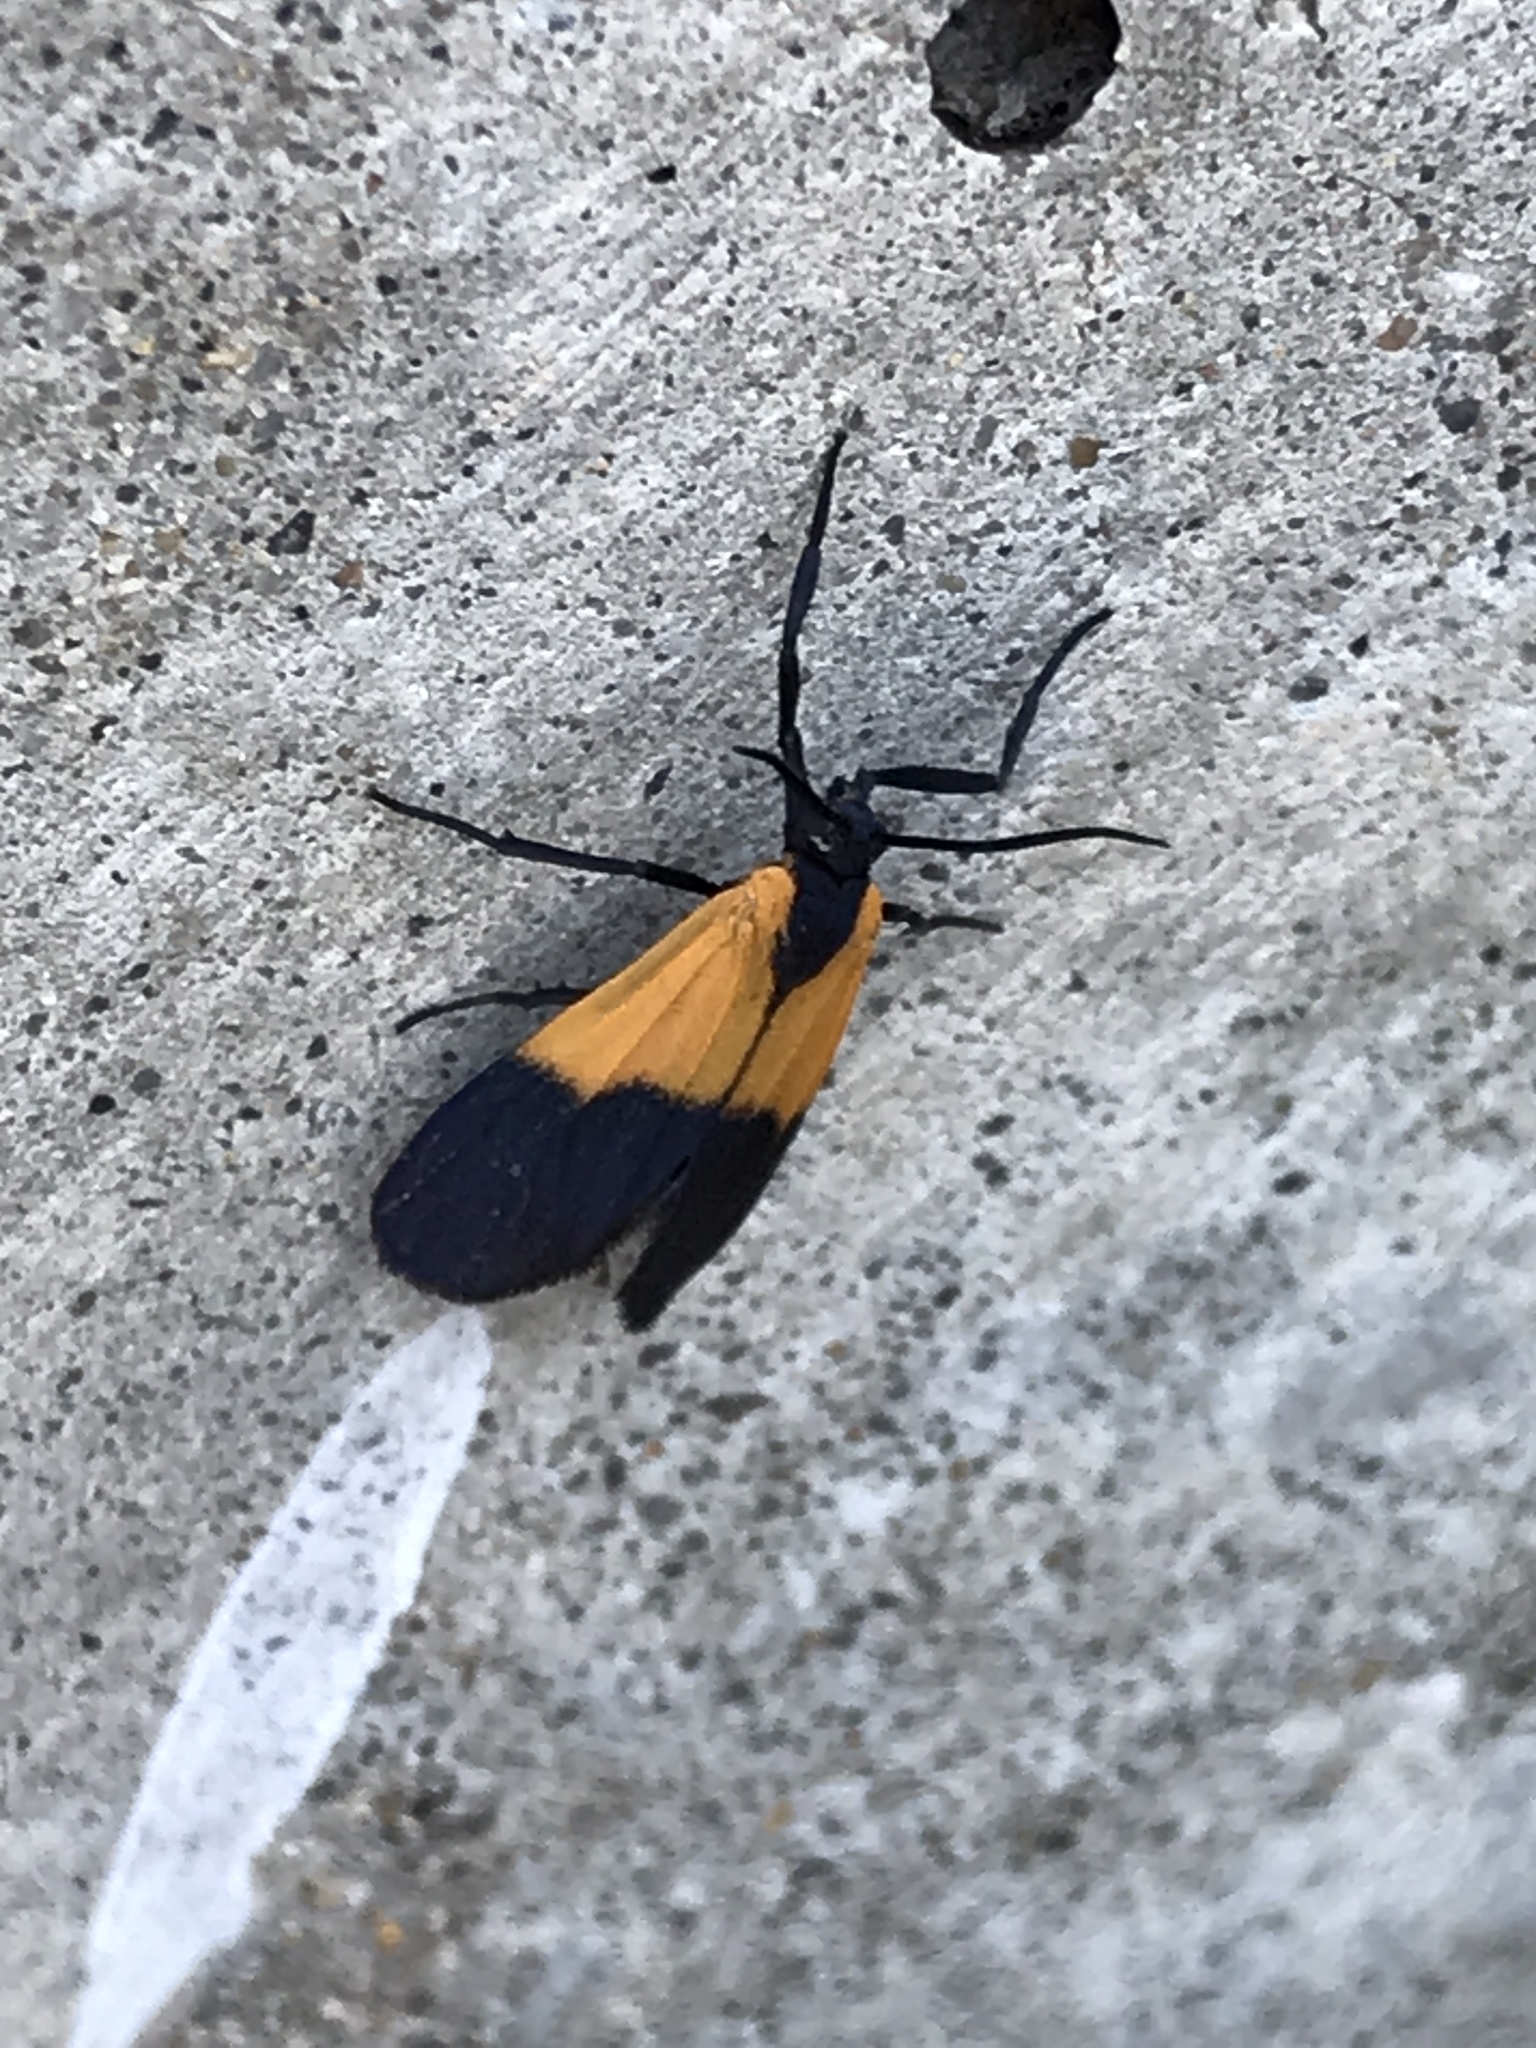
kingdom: Animalia
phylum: Arthropoda
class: Insecta
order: Lepidoptera
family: Erebidae
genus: Lycomorpha
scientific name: Lycomorpha pholus
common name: Black-and-yellow lichen moth
